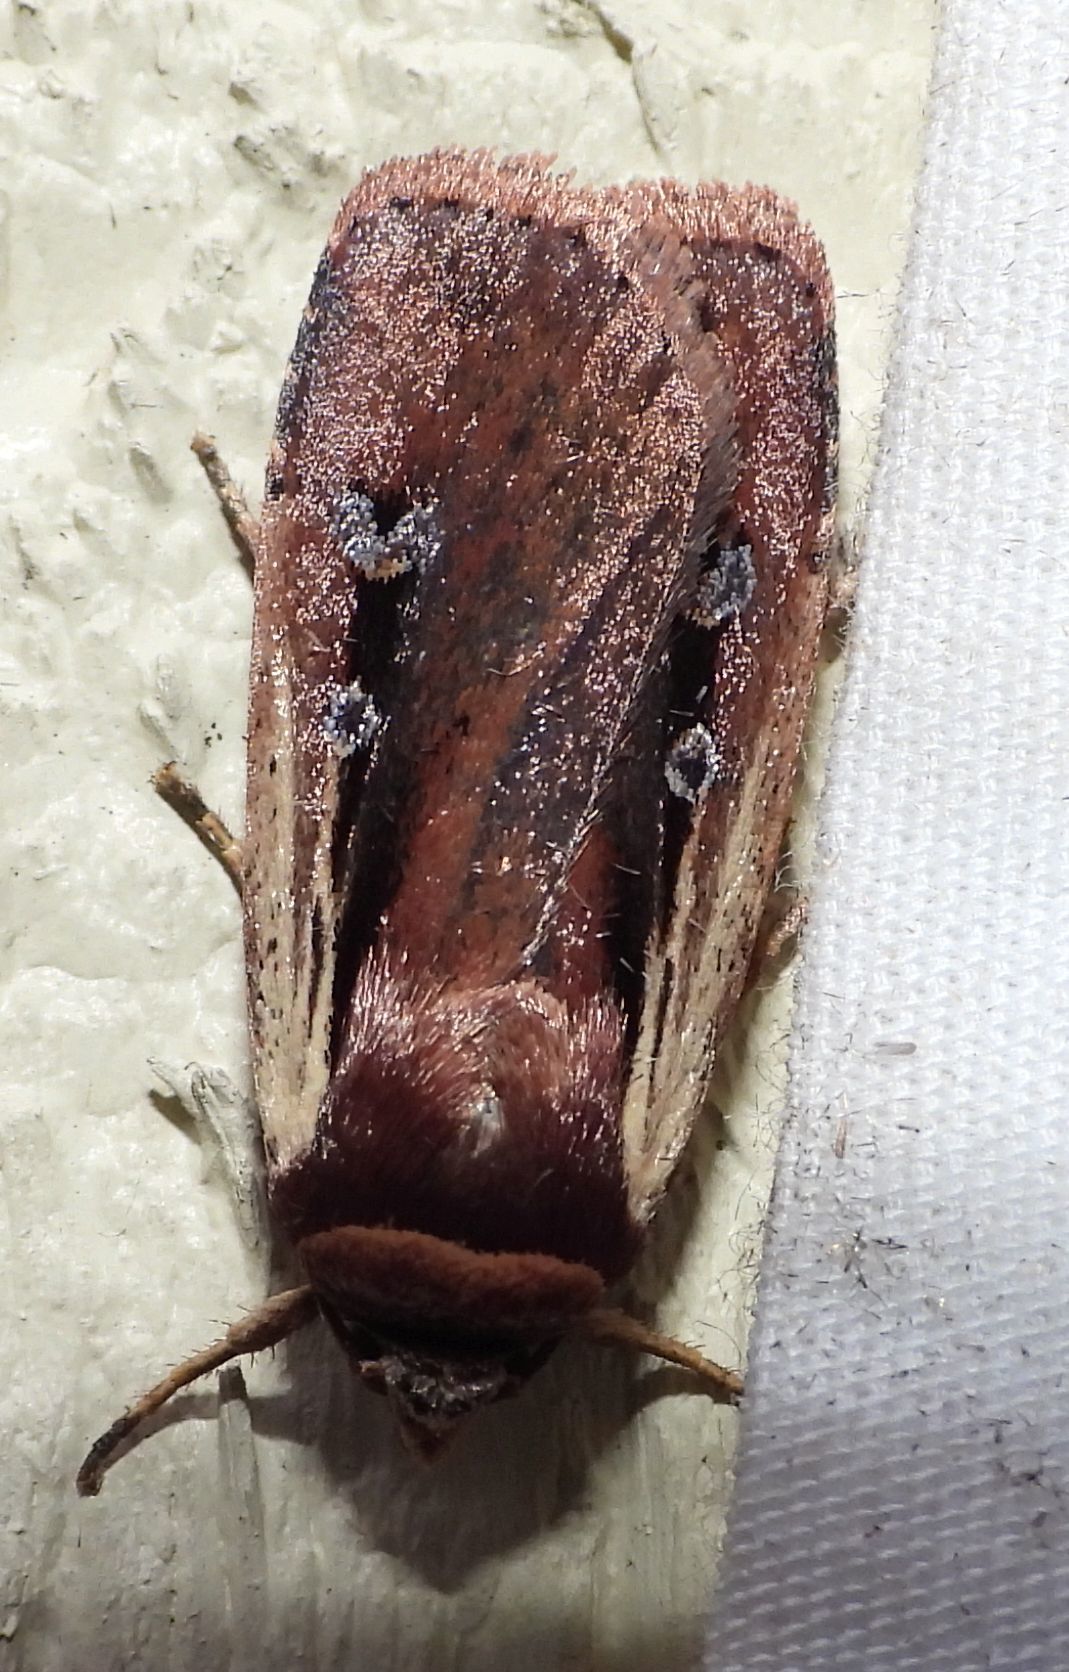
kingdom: Animalia
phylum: Arthropoda
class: Insecta
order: Lepidoptera
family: Noctuidae
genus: Ochropleura
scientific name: Ochropleura implecta
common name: Flame-shouldered dart
